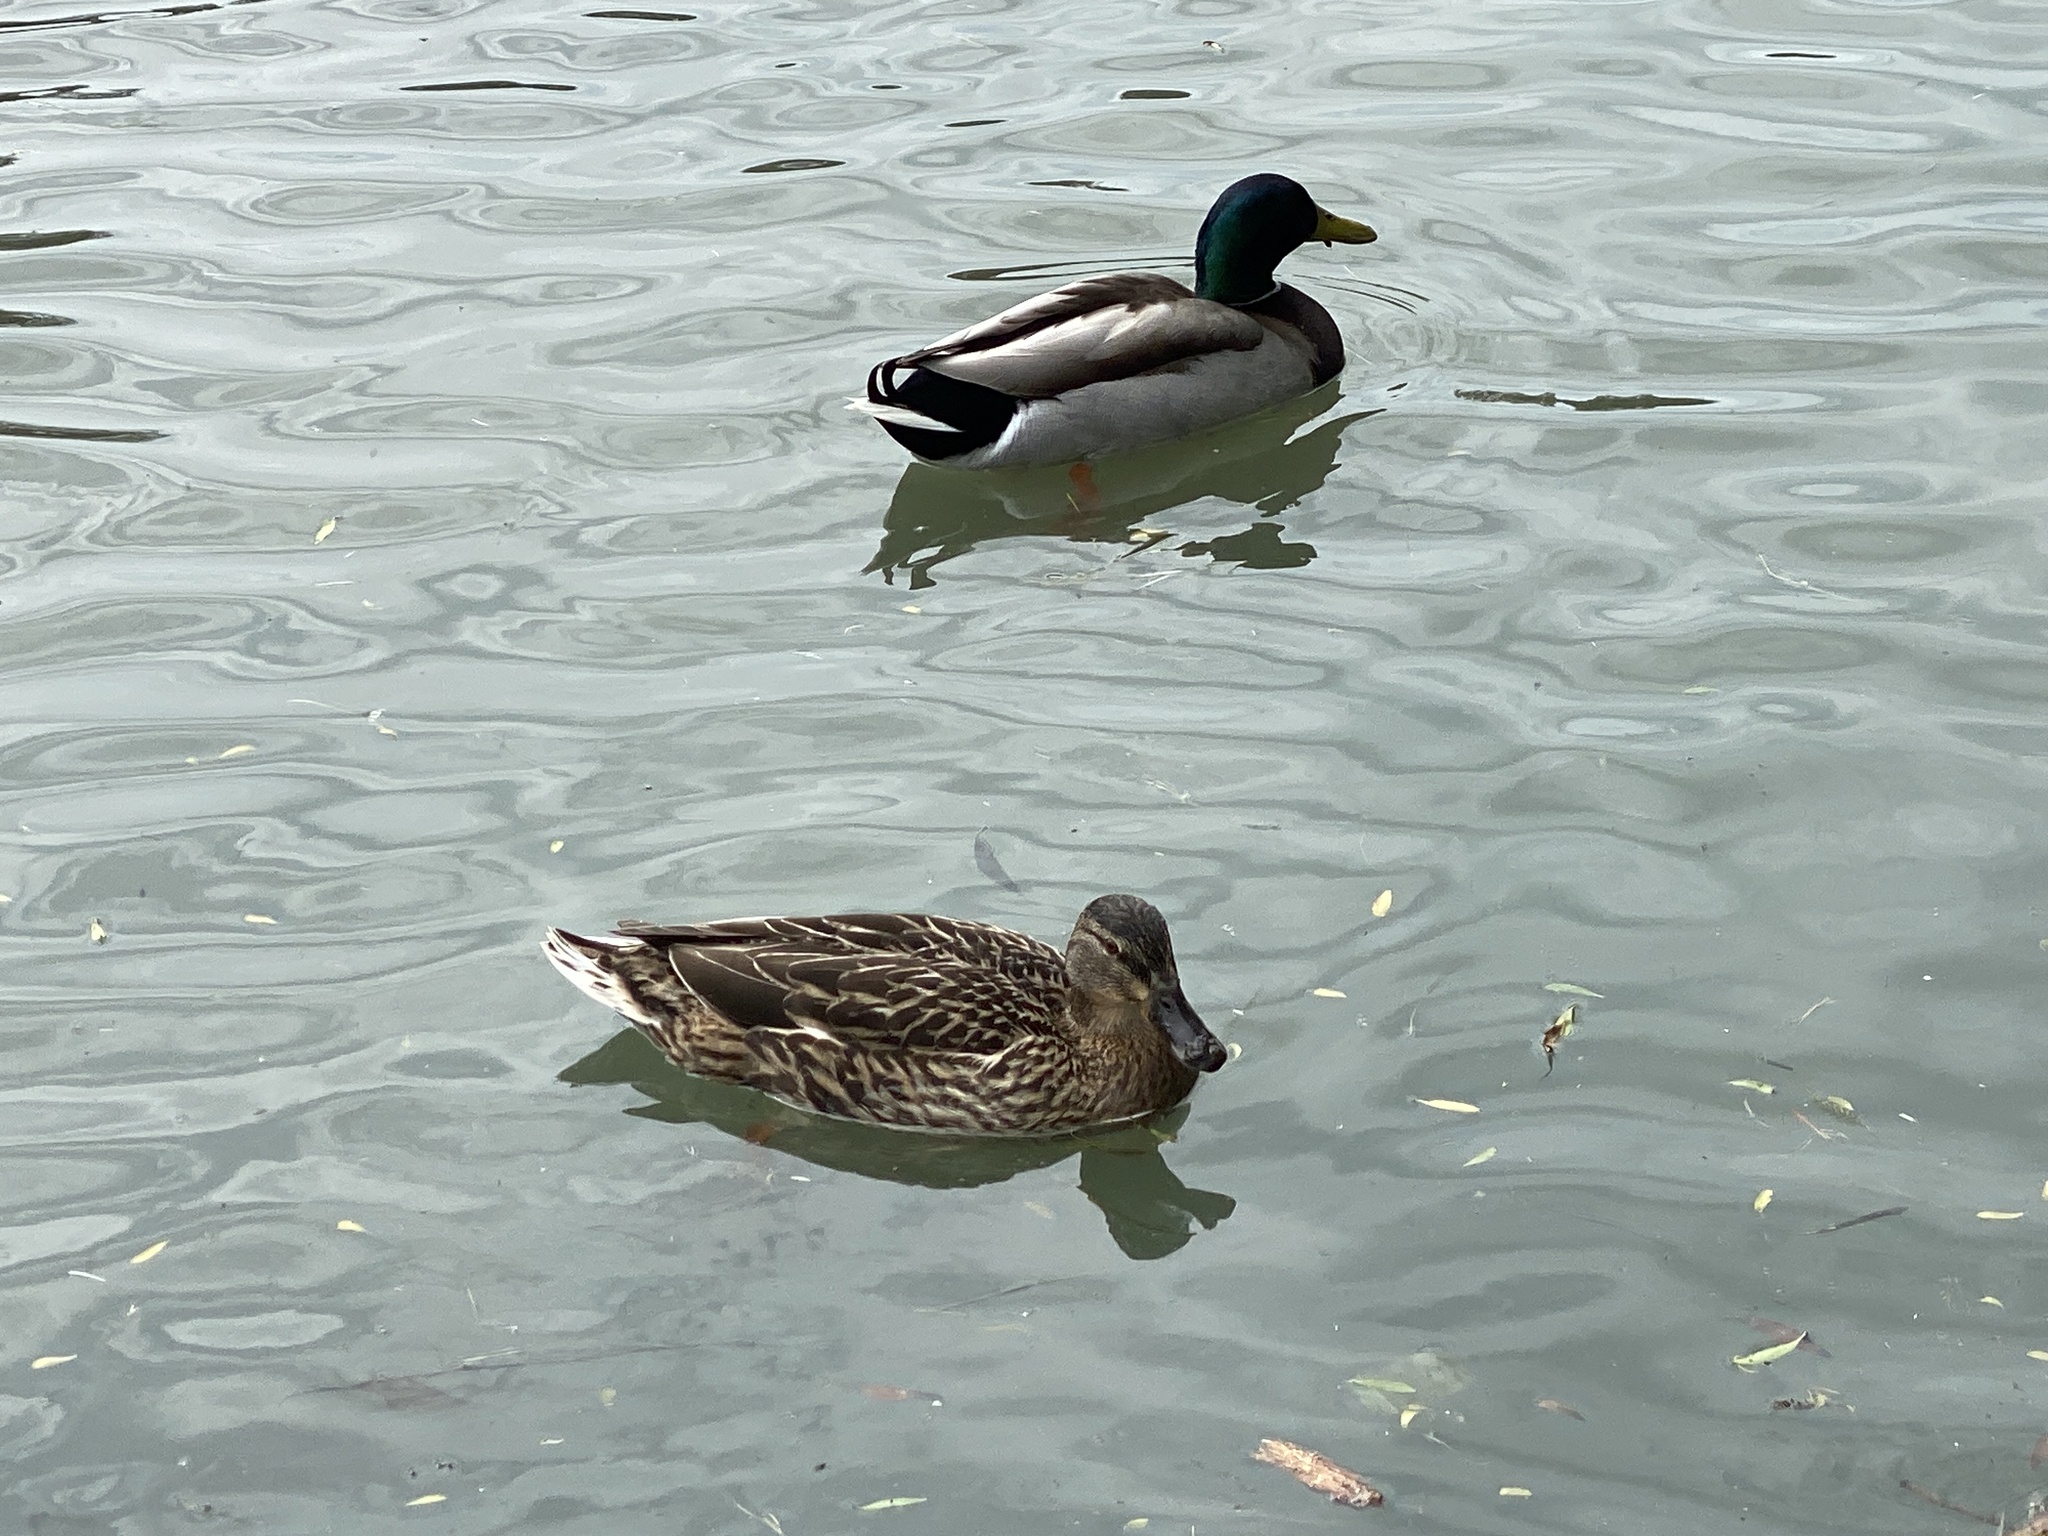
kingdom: Animalia
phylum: Chordata
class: Aves
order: Anseriformes
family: Anatidae
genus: Anas
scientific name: Anas platyrhynchos
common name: Mallard
